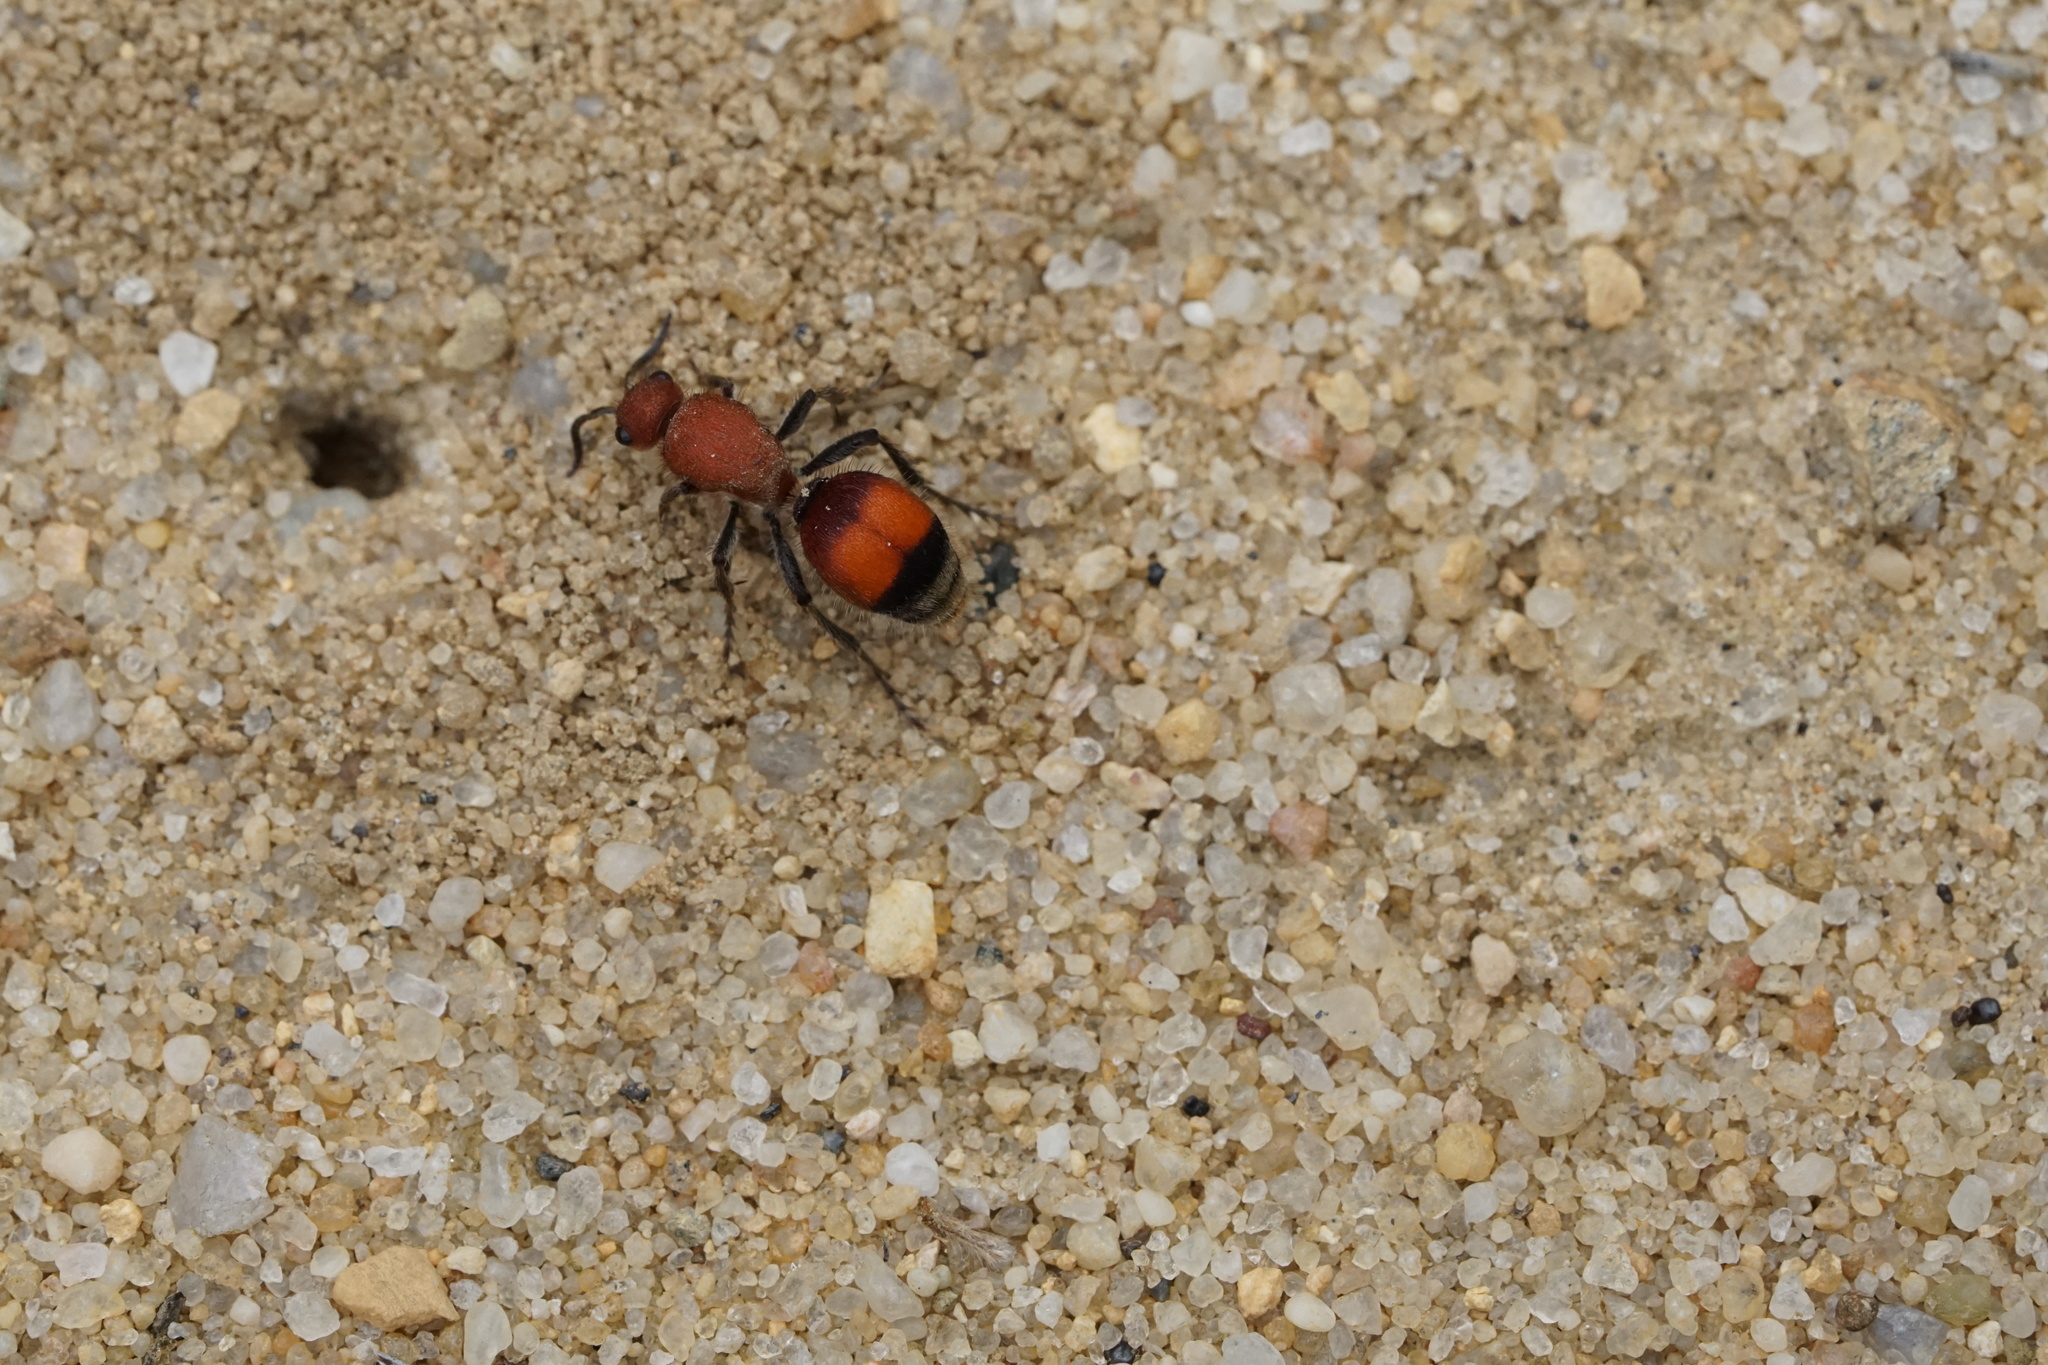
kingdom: Animalia
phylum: Arthropoda
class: Insecta
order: Hymenoptera
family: Mutillidae
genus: Dasymutilla
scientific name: Dasymutilla
